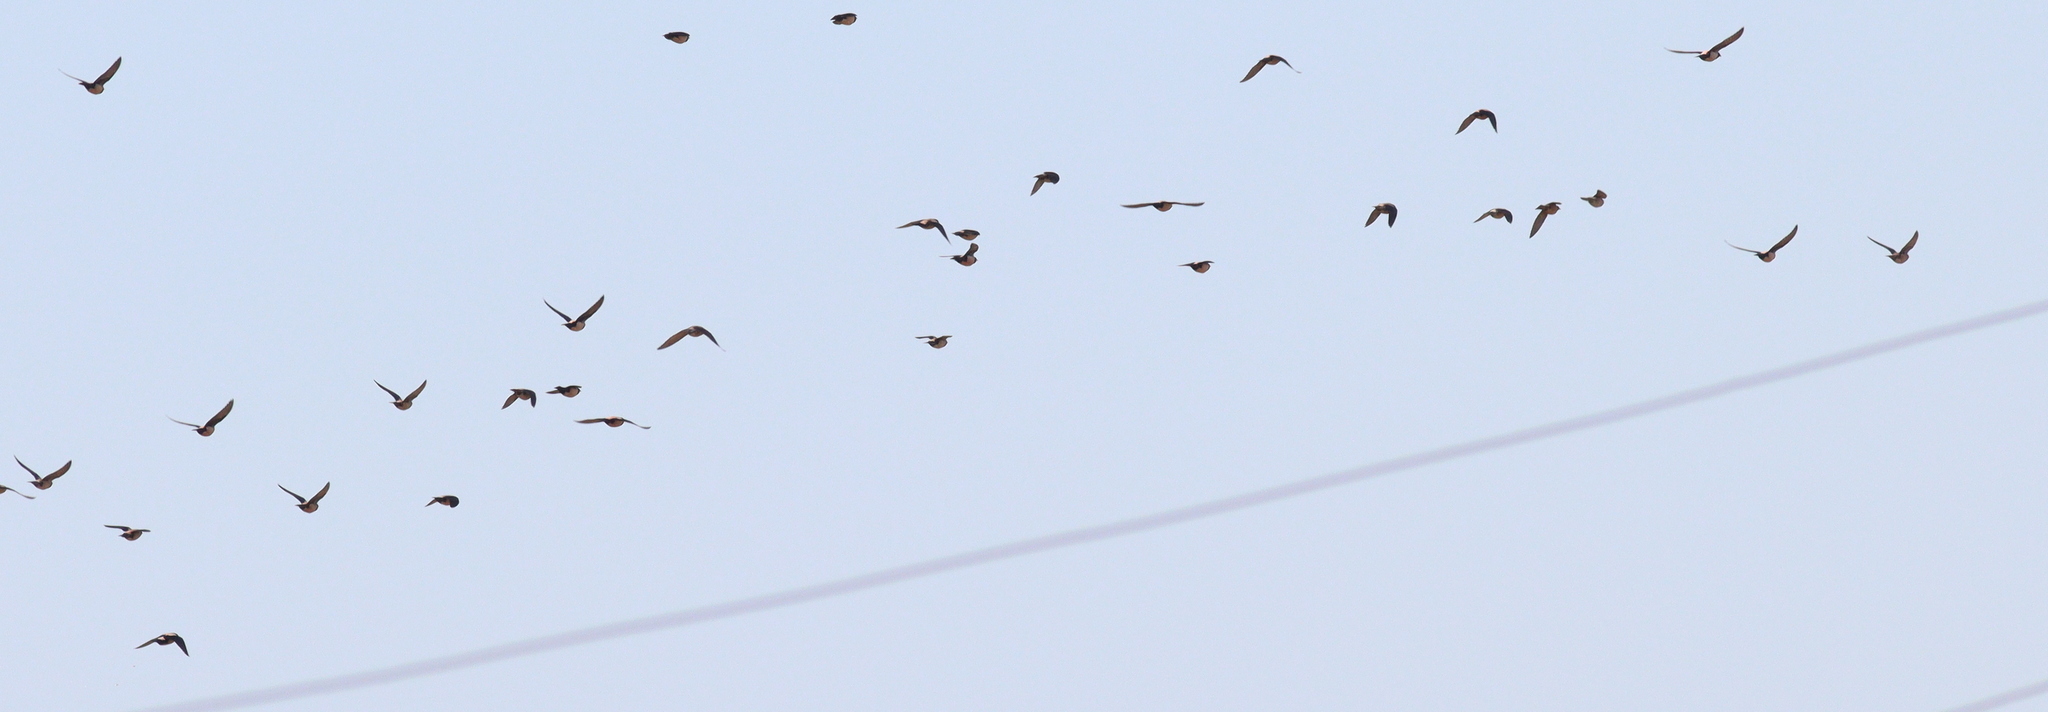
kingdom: Animalia
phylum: Chordata
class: Aves
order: Passeriformes
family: Sturnidae
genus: Pastor
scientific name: Pastor roseus
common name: Rosy starling
